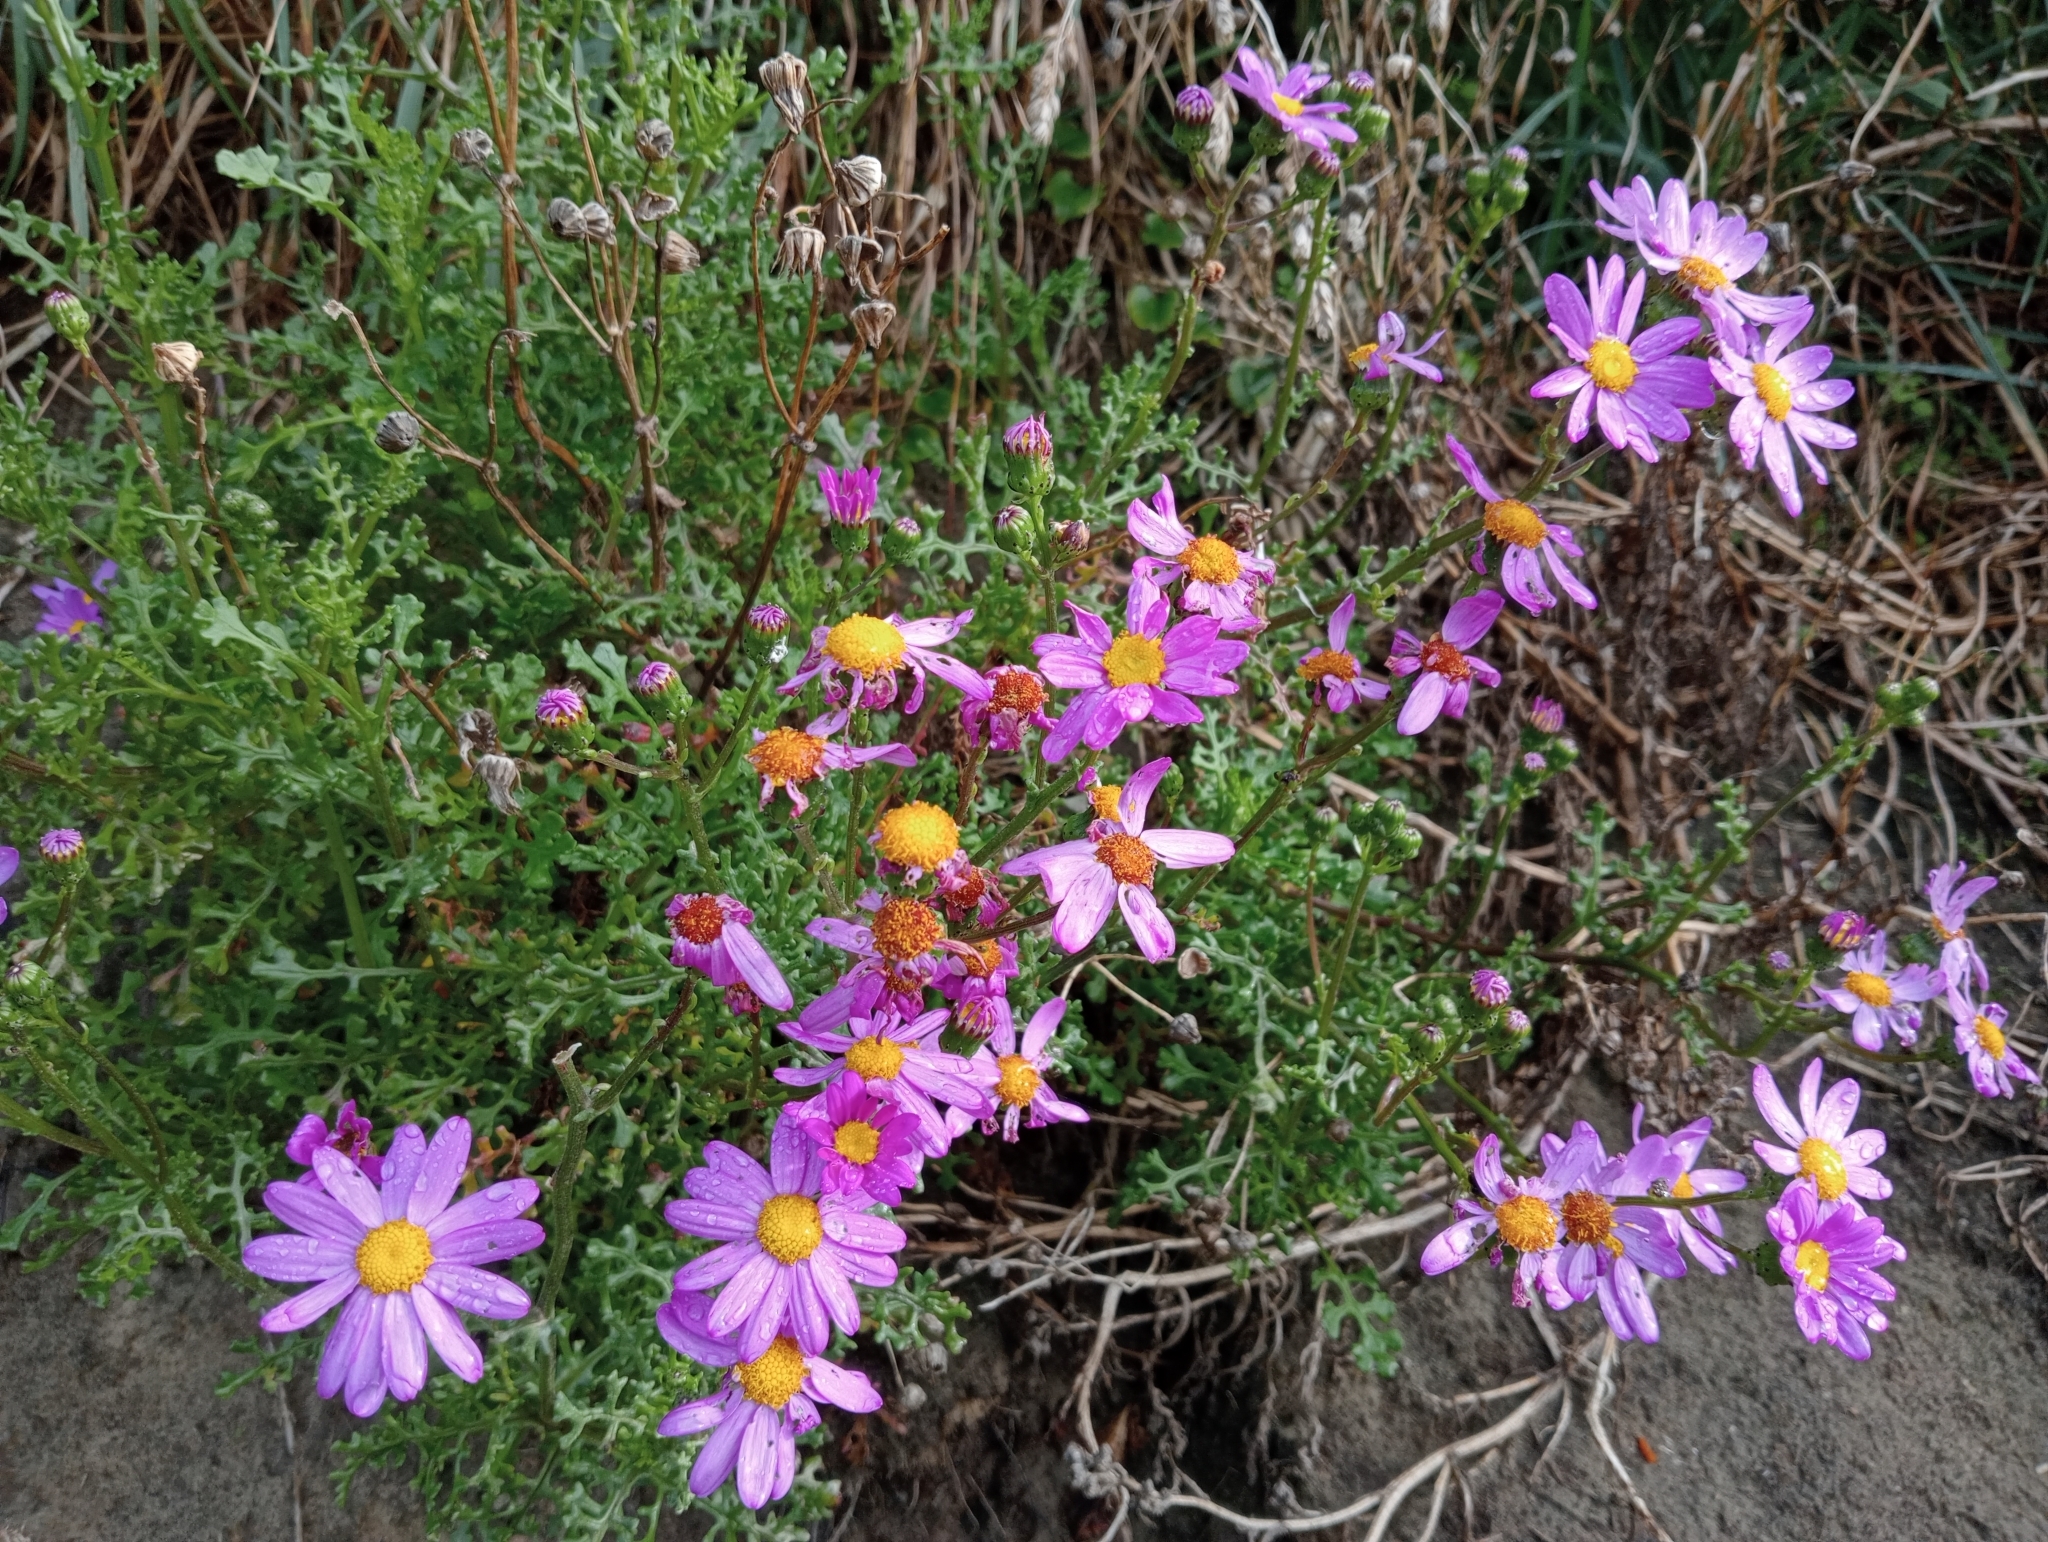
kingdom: Plantae
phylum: Tracheophyta
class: Magnoliopsida
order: Asterales
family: Asteraceae
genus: Senecio
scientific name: Senecio elegans
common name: Purple groundsel
